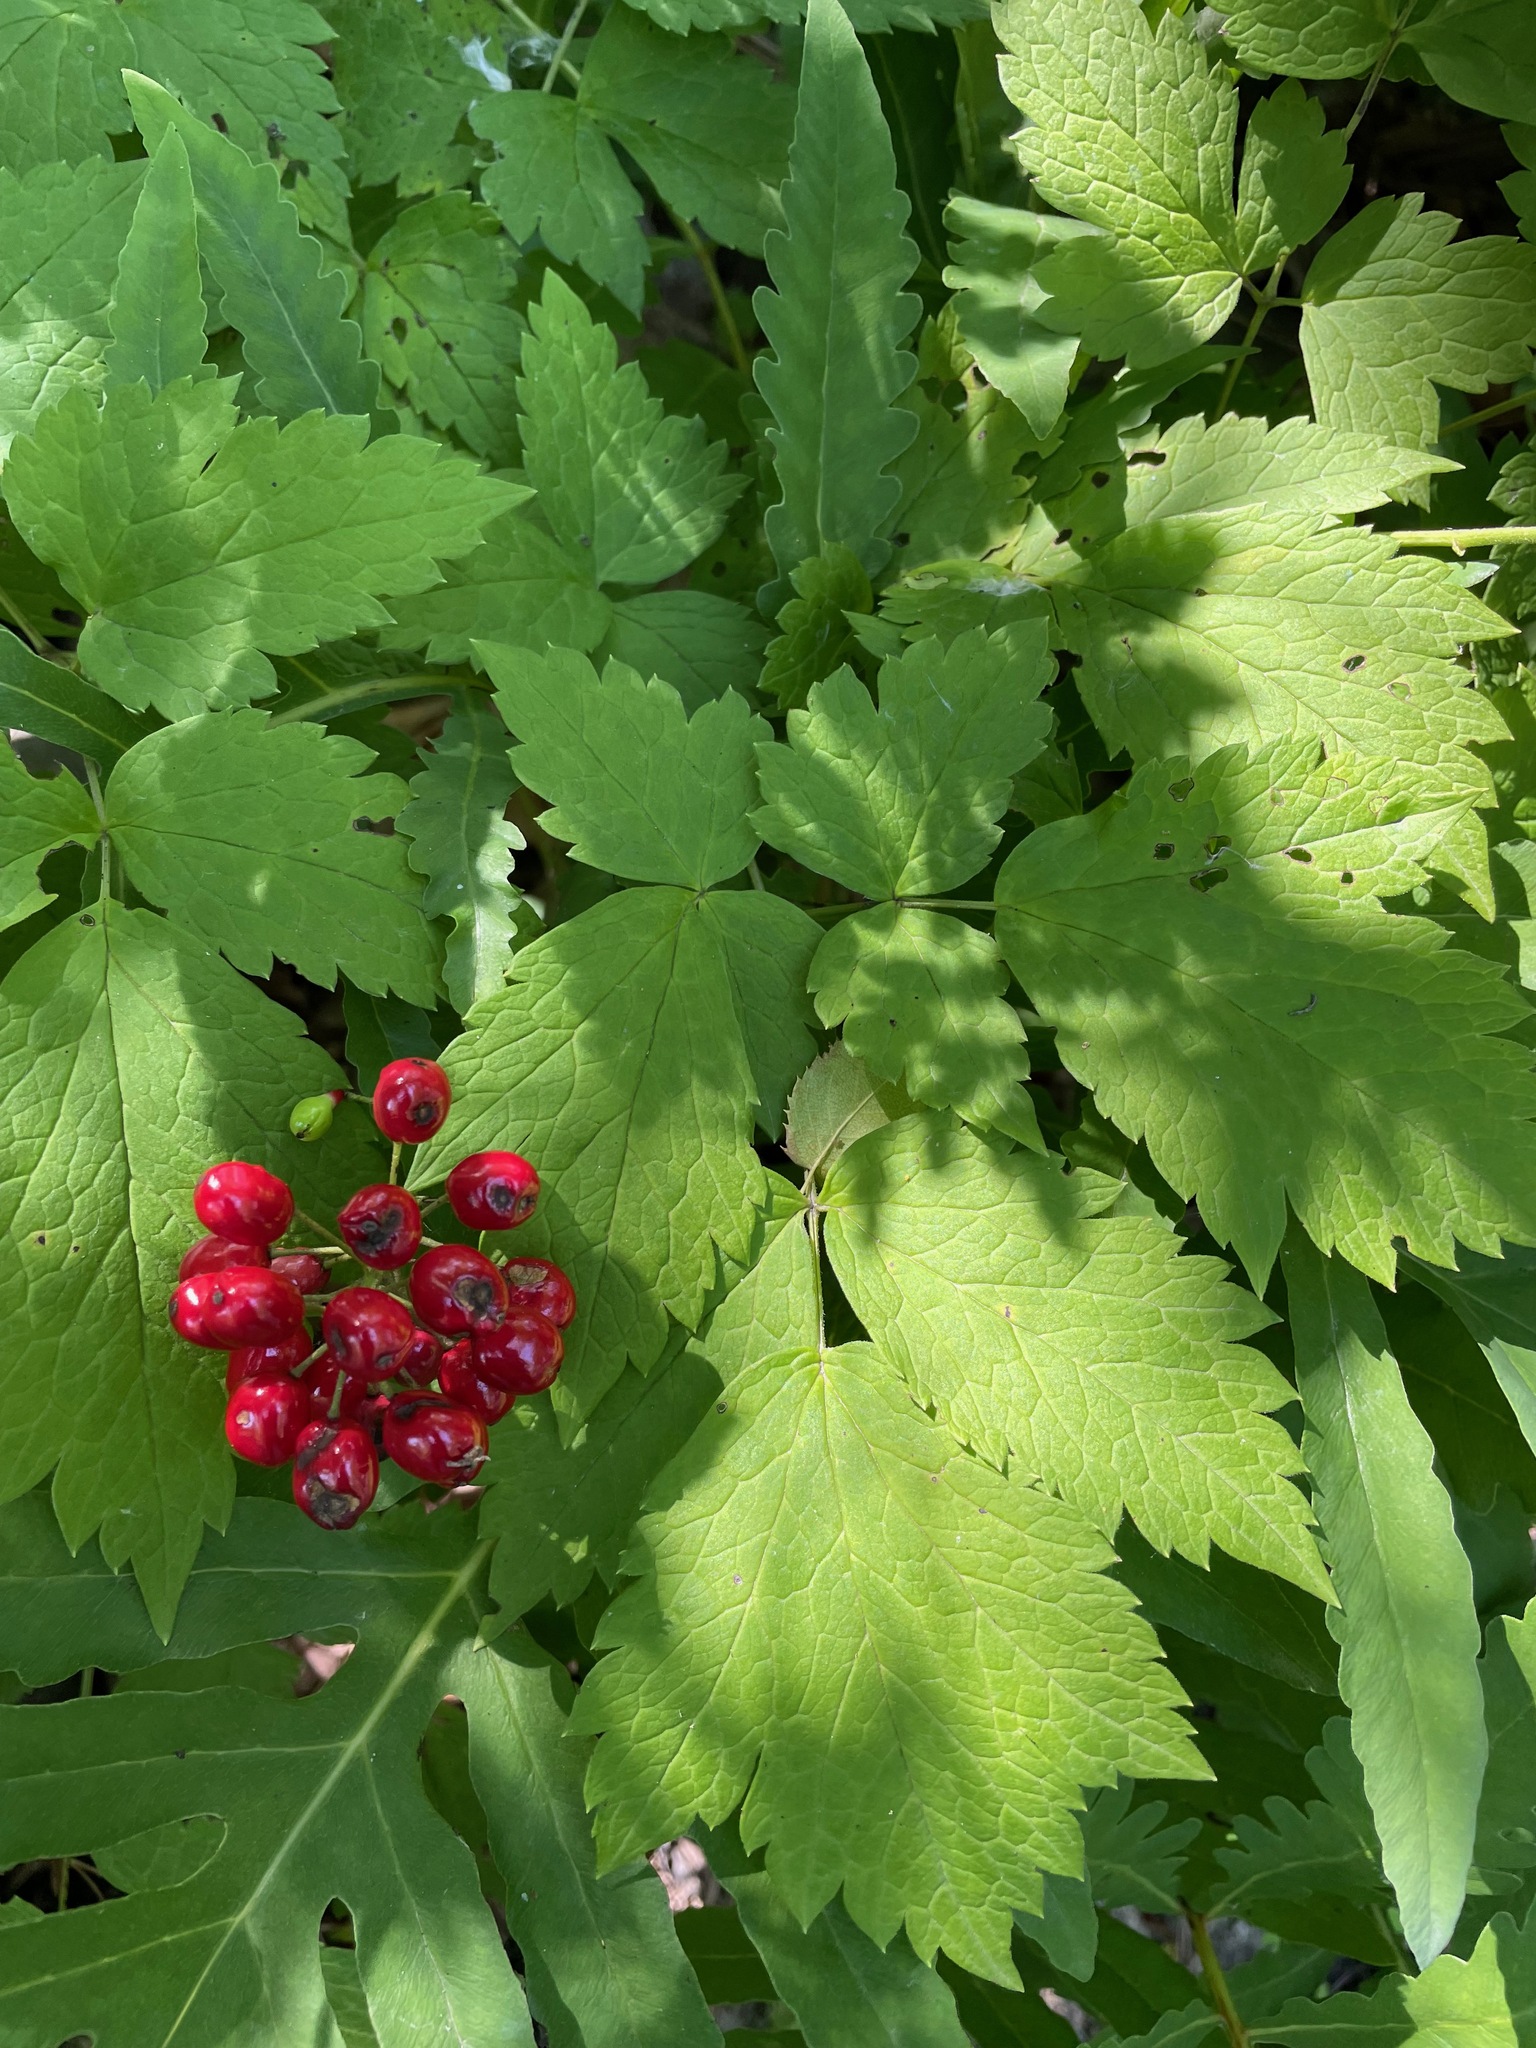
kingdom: Plantae
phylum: Tracheophyta
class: Magnoliopsida
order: Ranunculales
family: Ranunculaceae
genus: Actaea
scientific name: Actaea rubra
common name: Red baneberry
